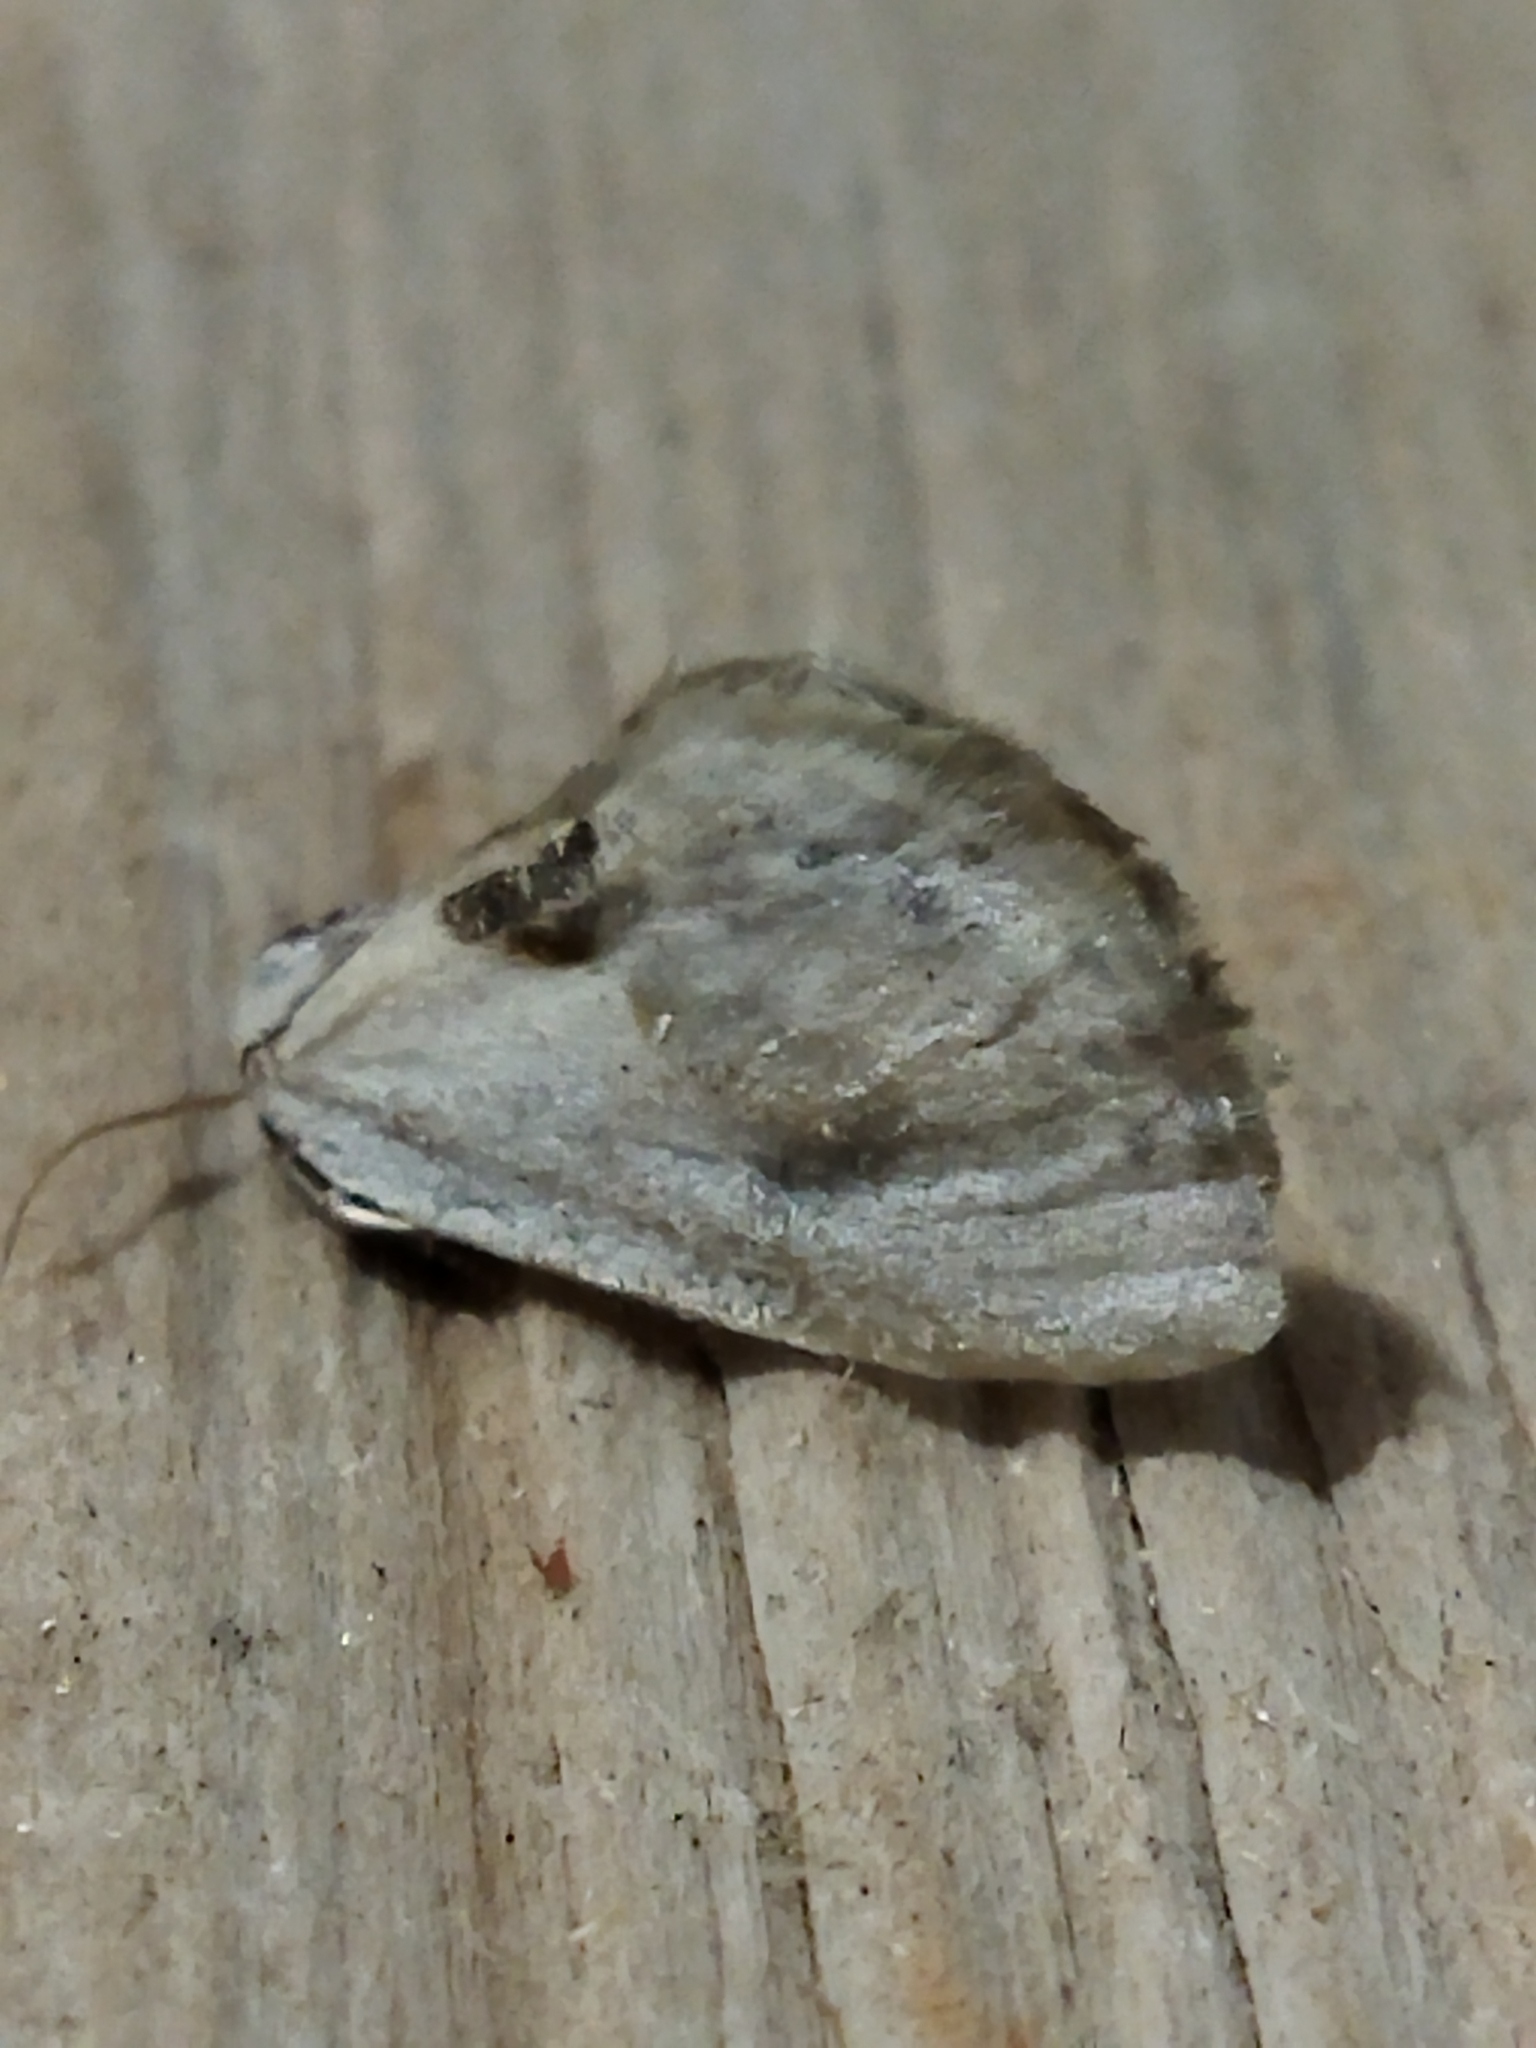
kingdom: Animalia
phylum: Arthropoda
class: Insecta
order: Lepidoptera
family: Drepanidae
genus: Cilix
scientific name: Cilix glaucata
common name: Chinese character
